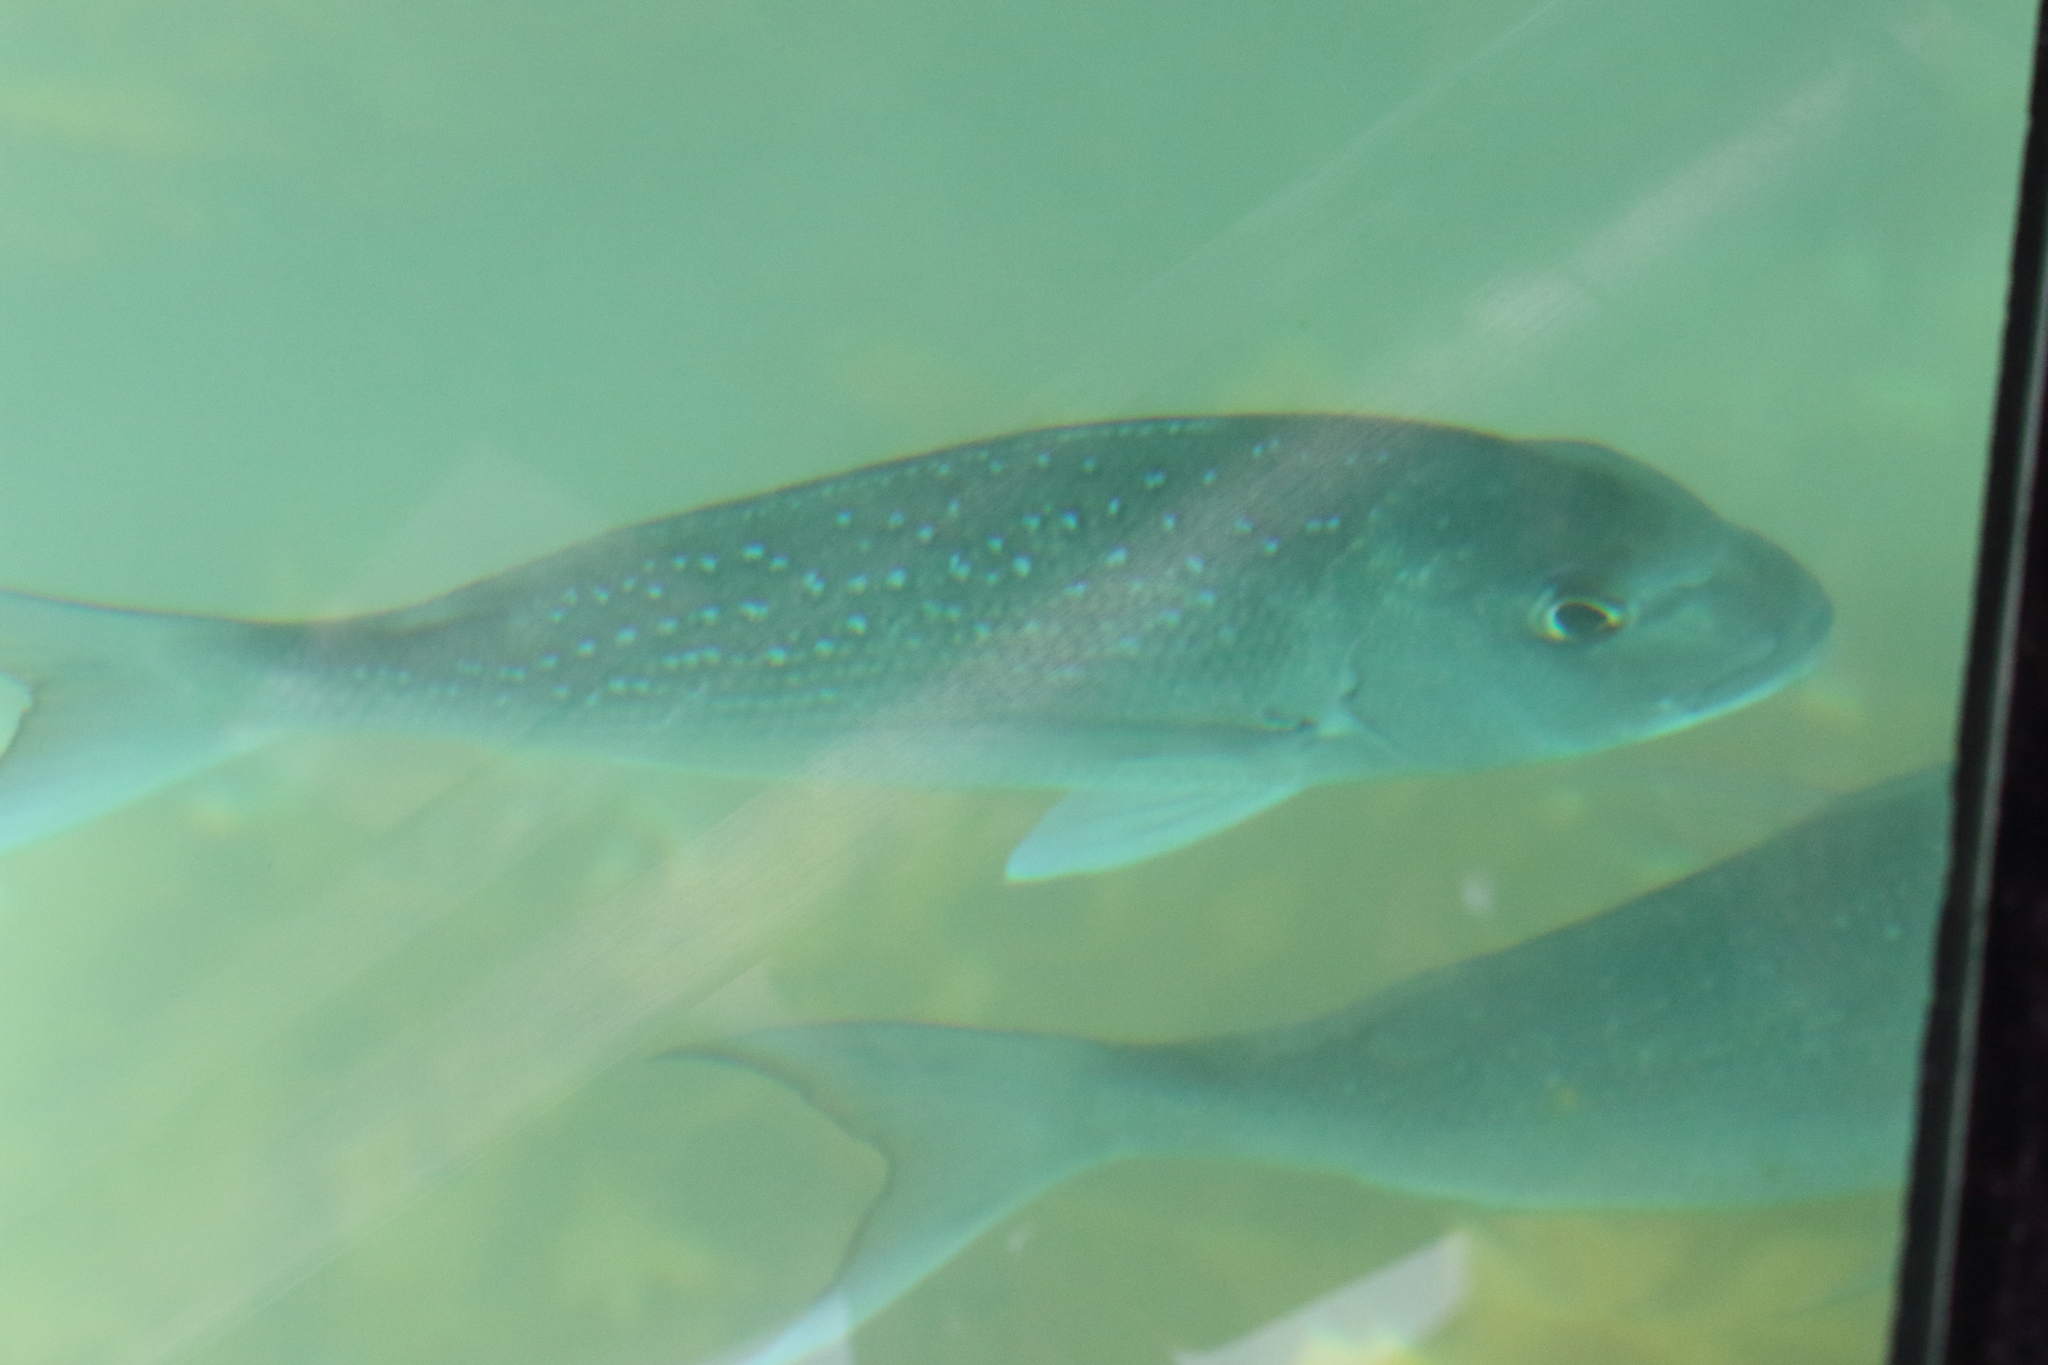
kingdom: Animalia
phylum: Chordata
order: Perciformes
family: Sparidae
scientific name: Sparidae
